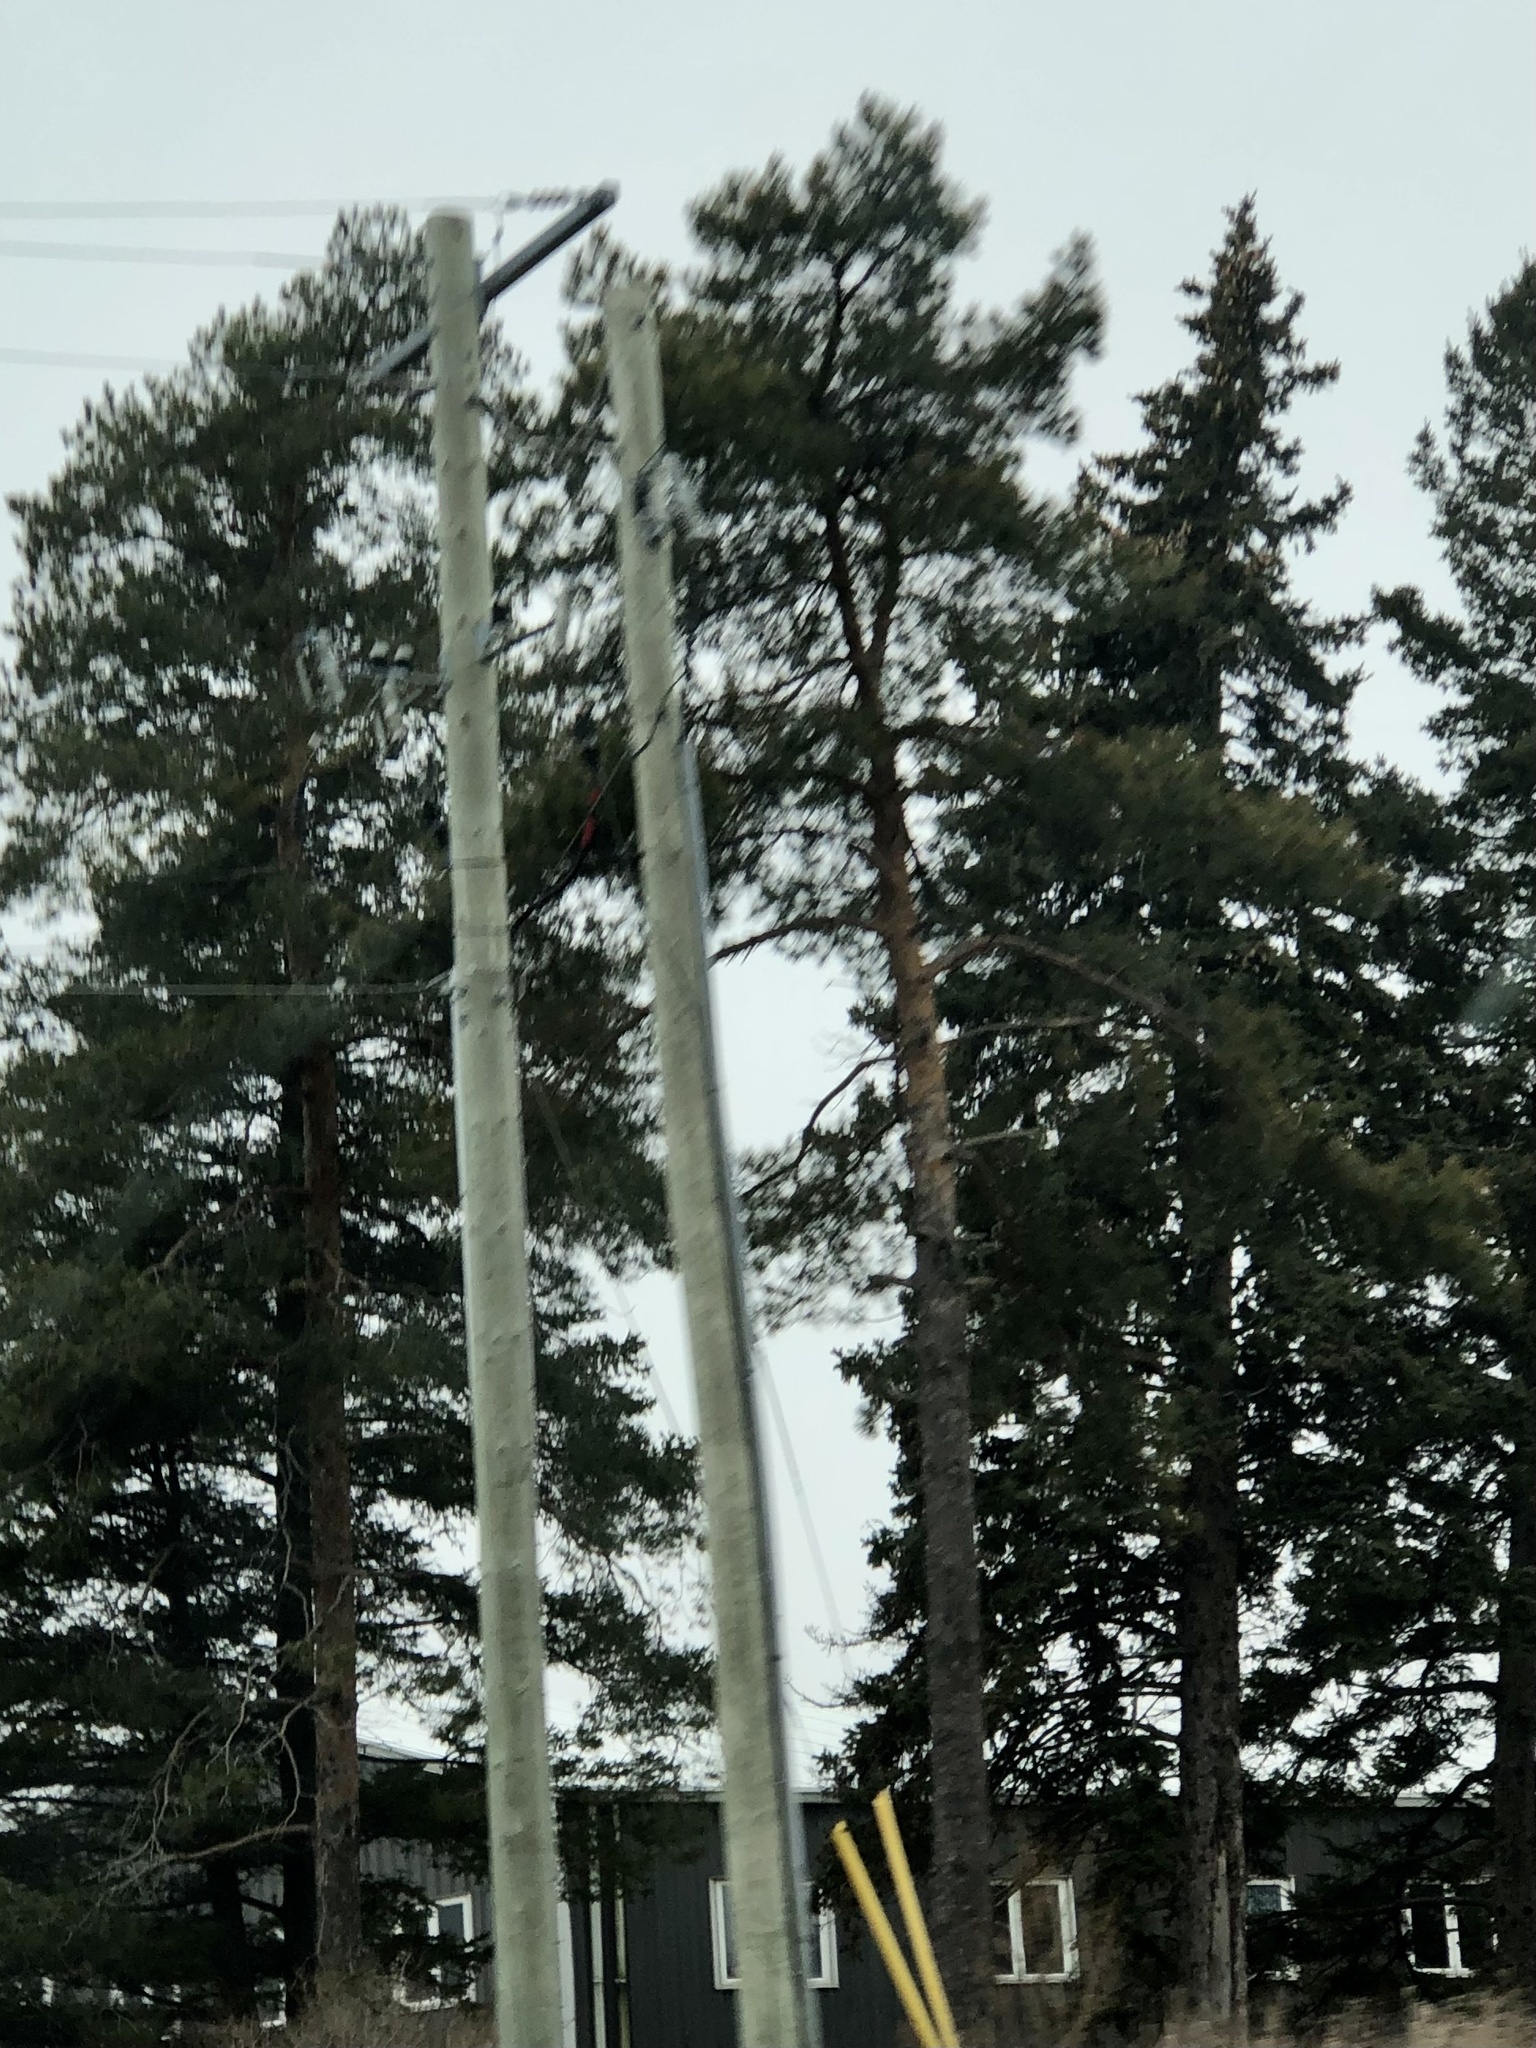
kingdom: Plantae
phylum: Tracheophyta
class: Pinopsida
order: Pinales
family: Pinaceae
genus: Pinus
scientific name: Pinus sylvestris
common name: Scots pine
